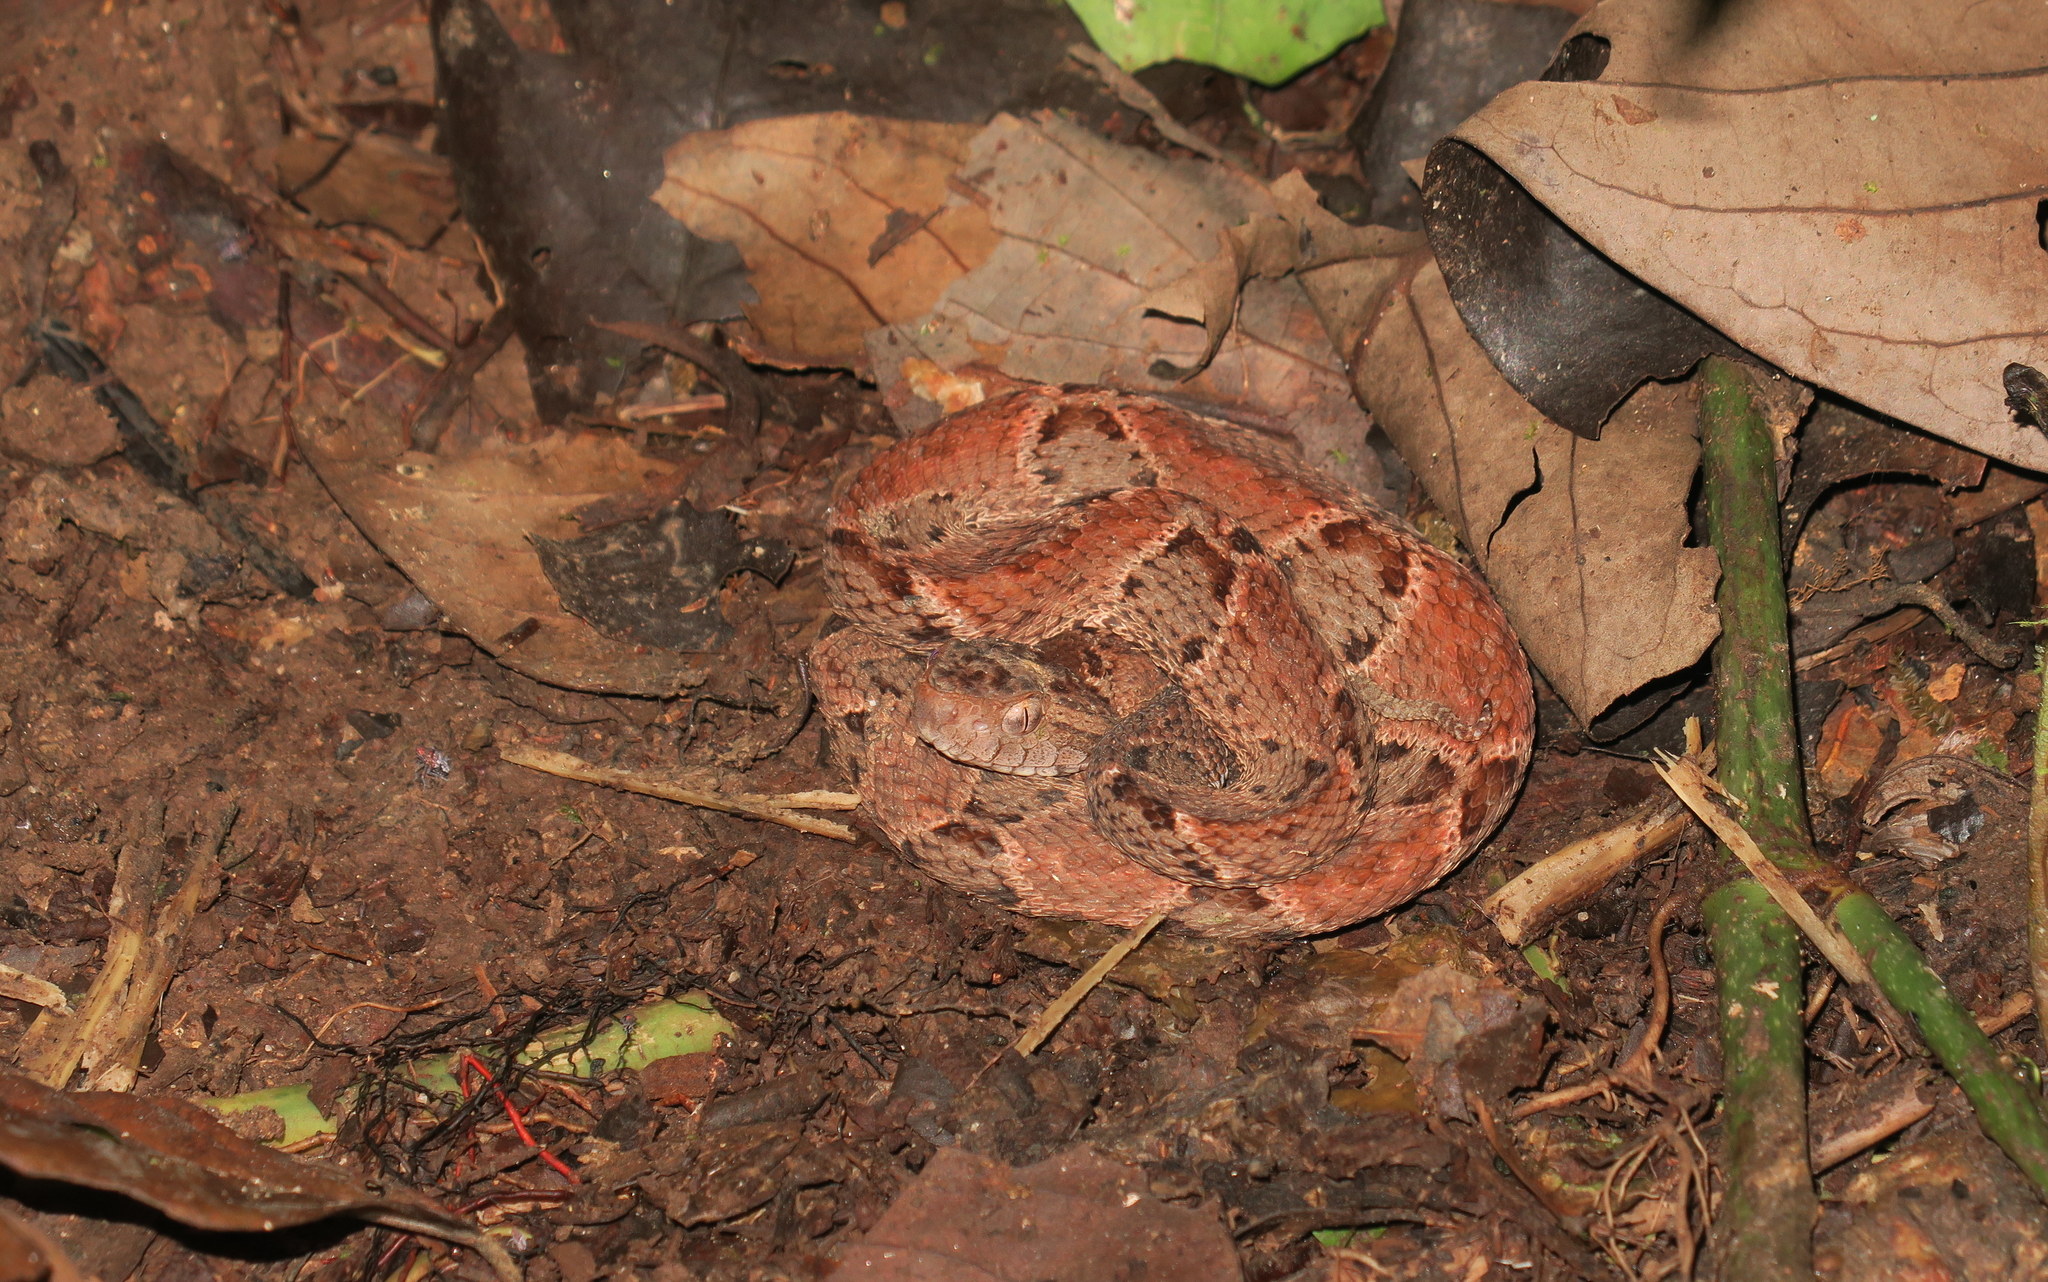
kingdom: Animalia
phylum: Chordata
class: Squamata
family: Viperidae
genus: Bothrops
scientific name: Bothrops asper
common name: Terciopelo
